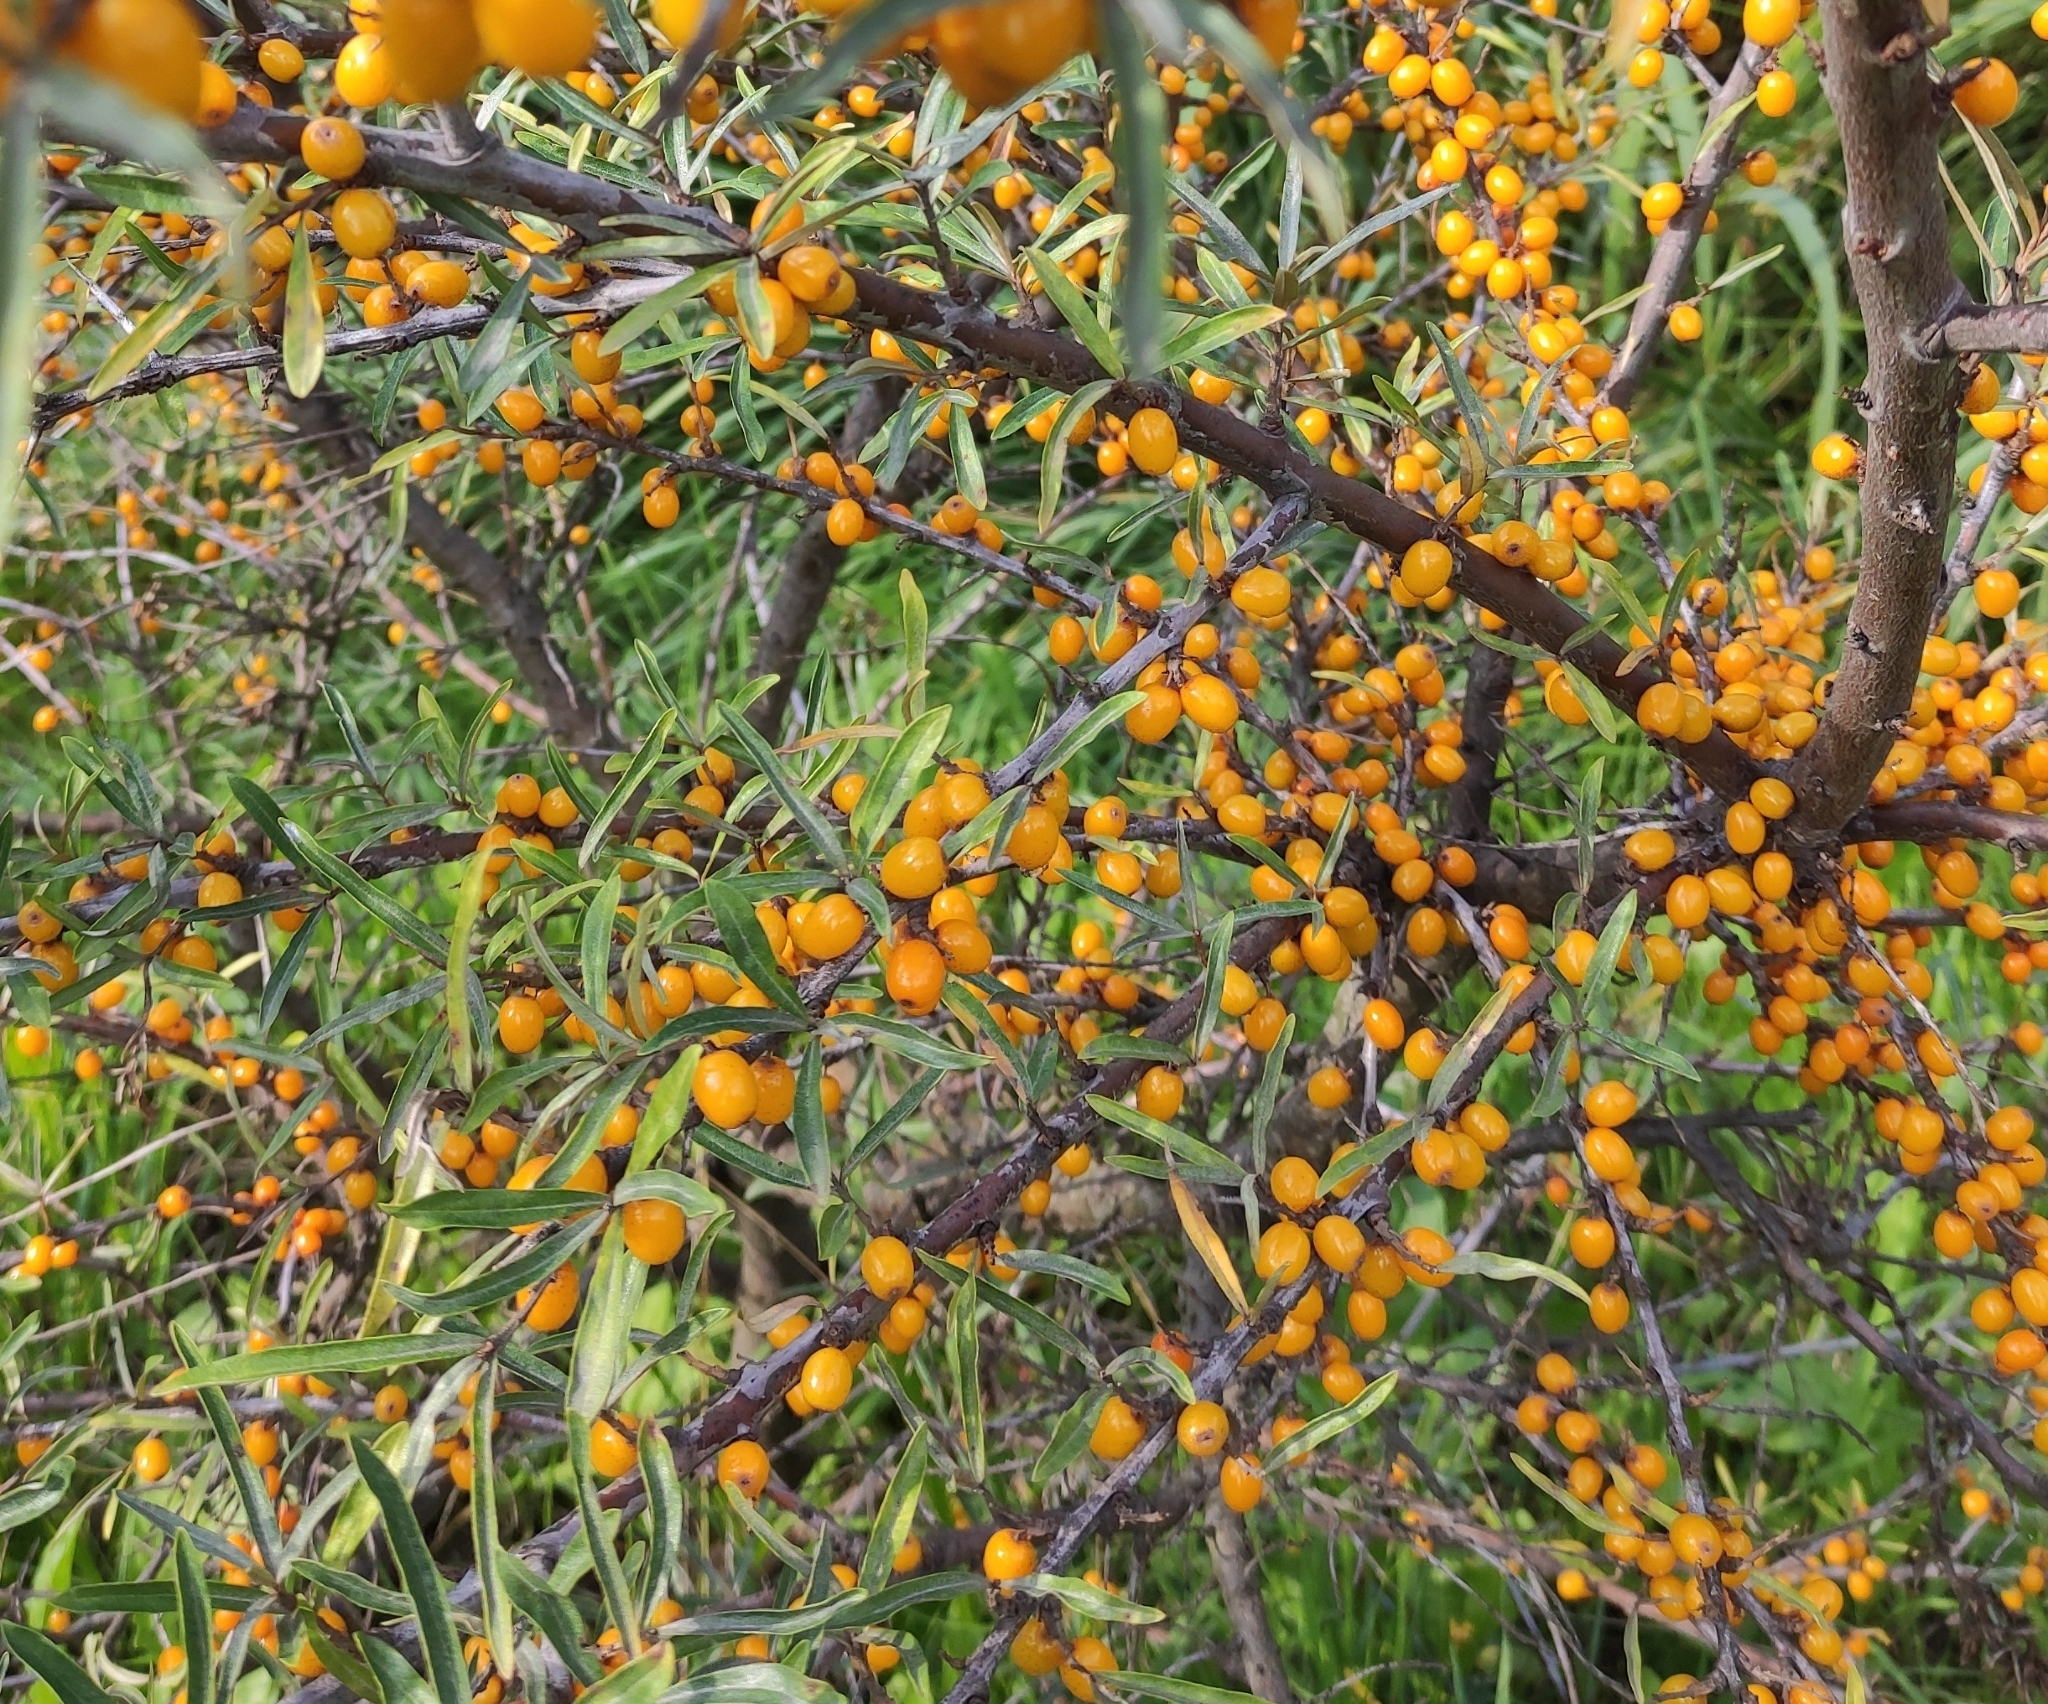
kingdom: Plantae
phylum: Tracheophyta
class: Magnoliopsida
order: Rosales
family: Elaeagnaceae
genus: Hippophae
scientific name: Hippophae rhamnoides
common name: Sea-buckthorn
